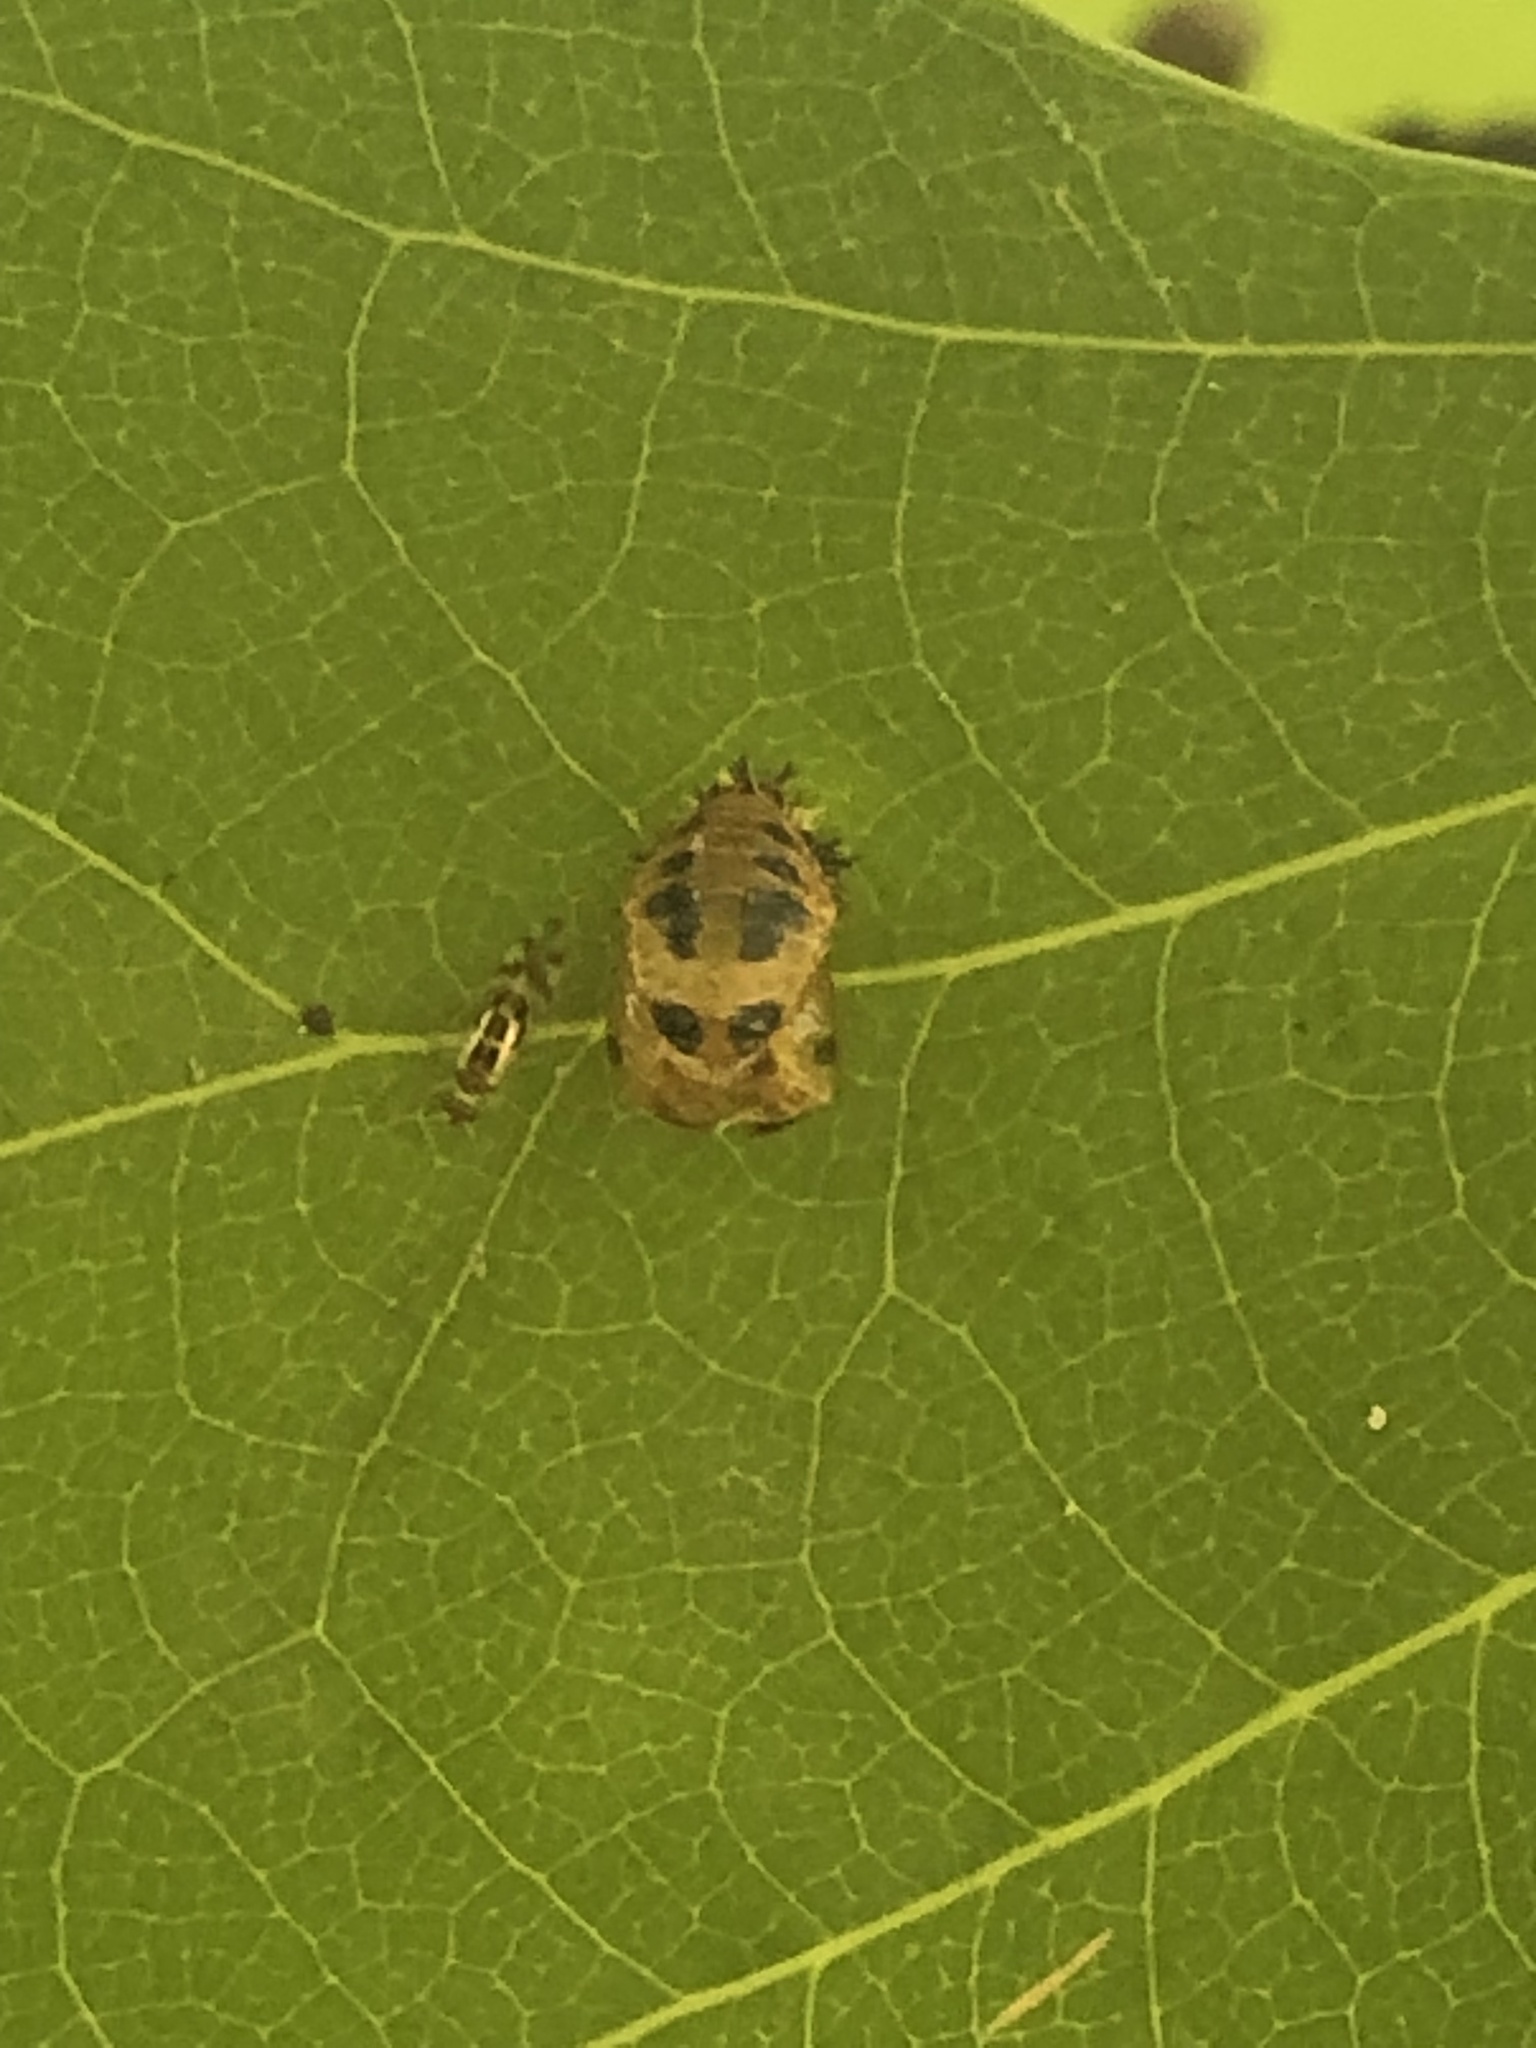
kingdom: Animalia
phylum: Arthropoda
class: Insecta
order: Coleoptera
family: Coccinellidae
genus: Harmonia
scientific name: Harmonia axyridis
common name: Harlequin ladybird
